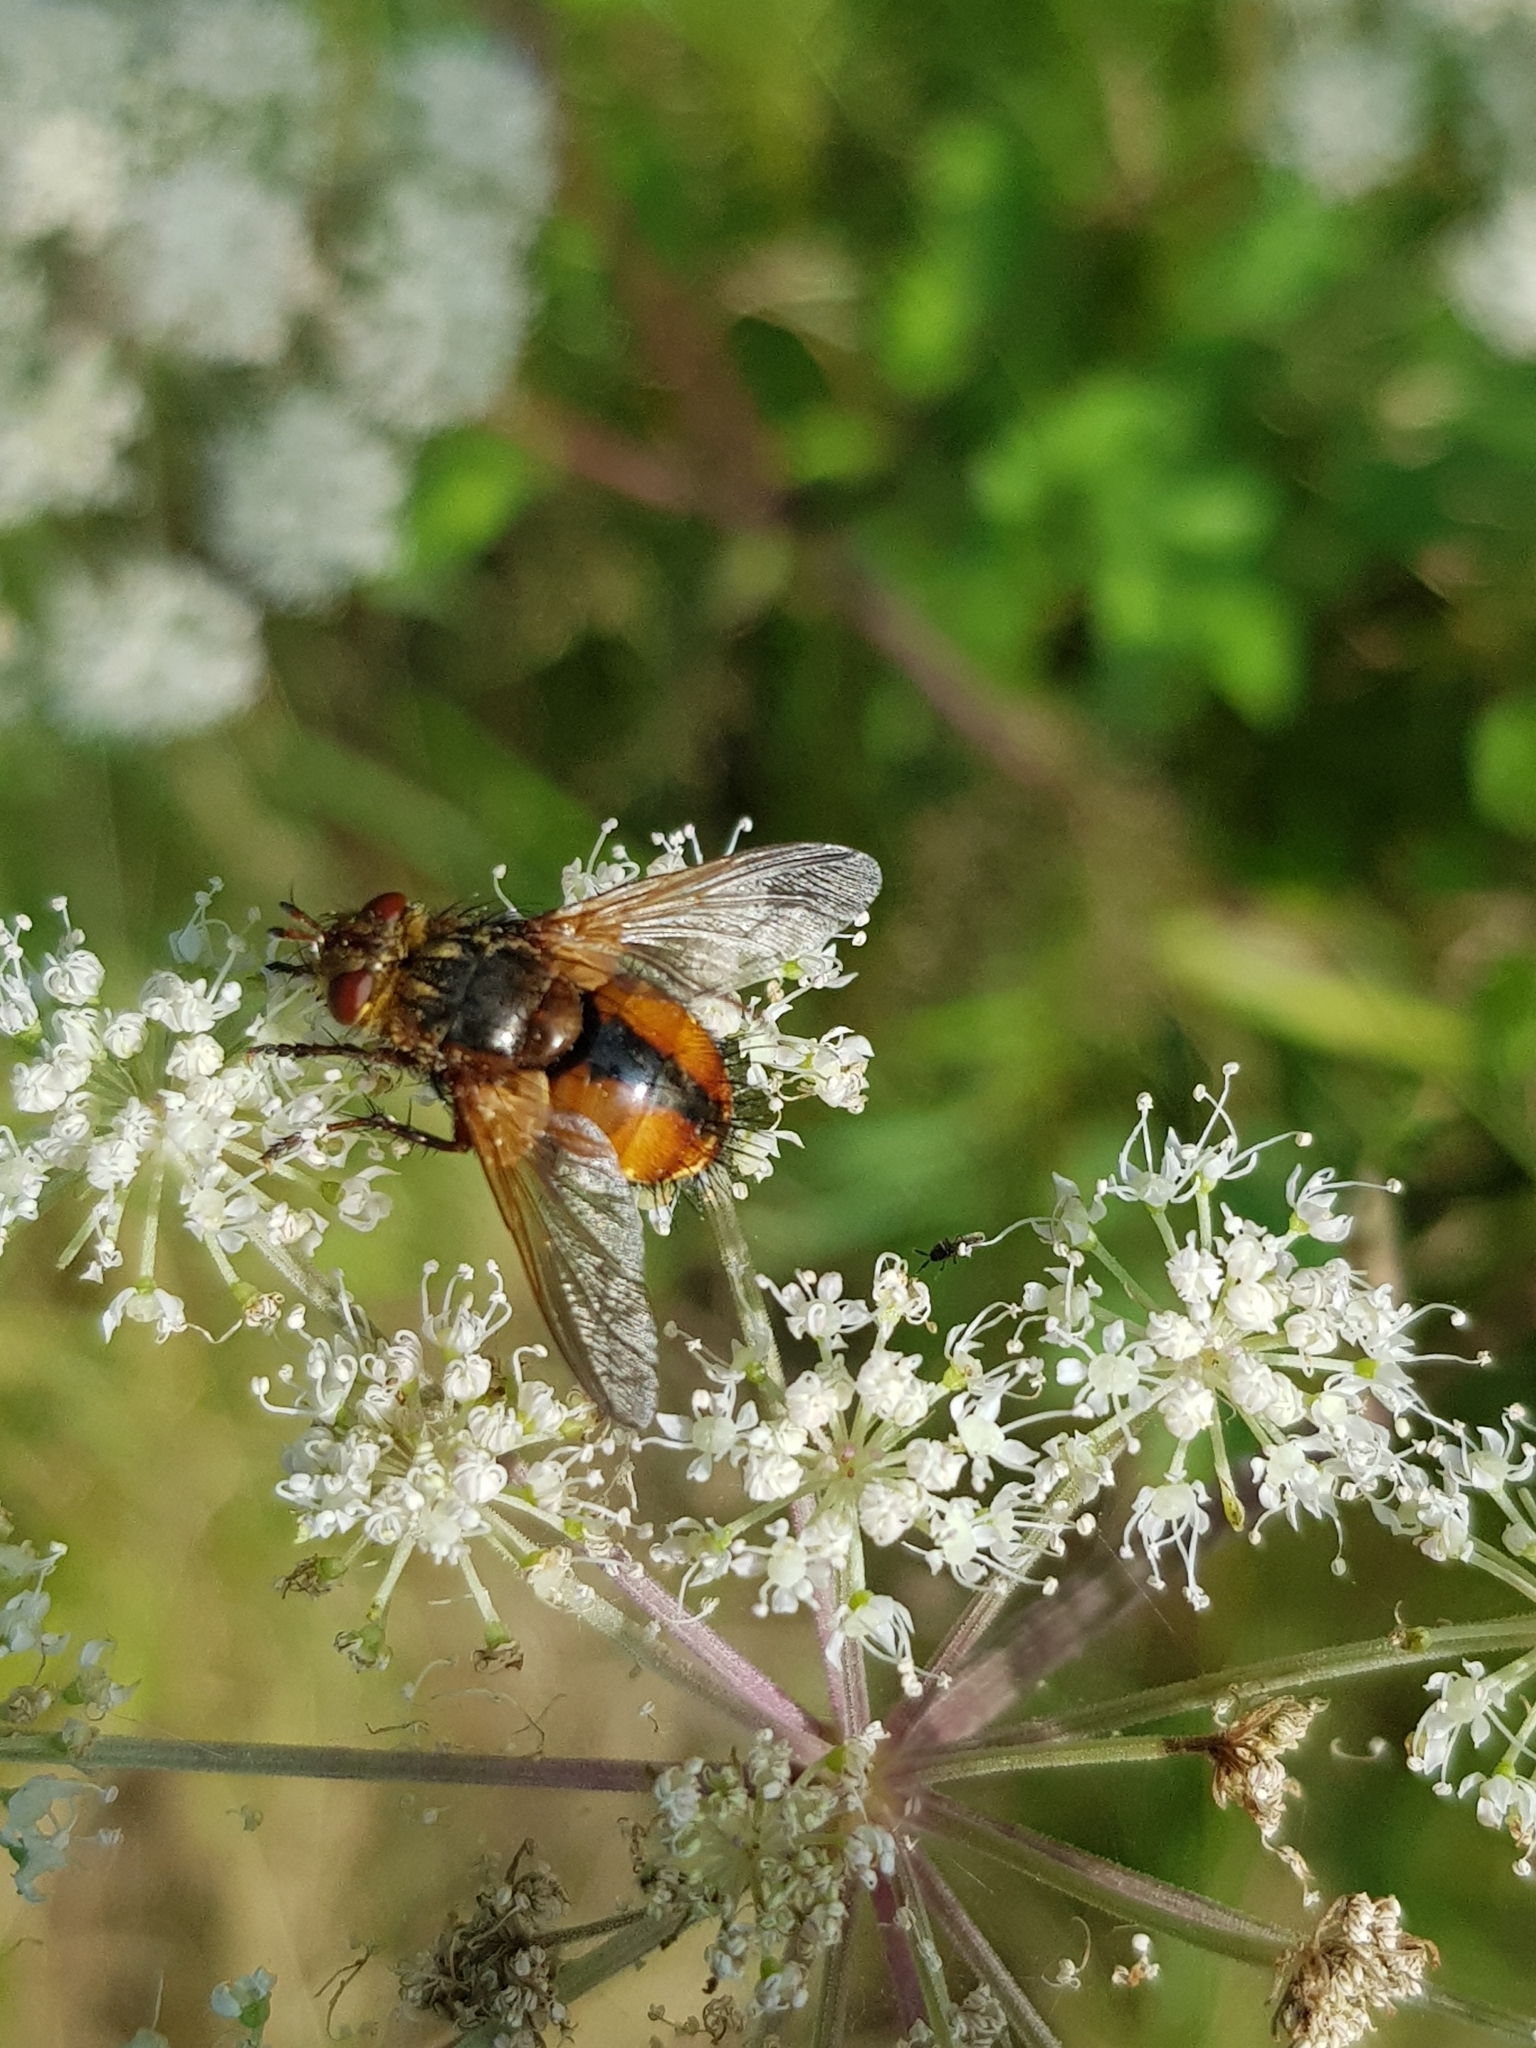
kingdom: Animalia
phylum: Arthropoda
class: Insecta
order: Diptera
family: Tachinidae
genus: Tachina
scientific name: Tachina fera
